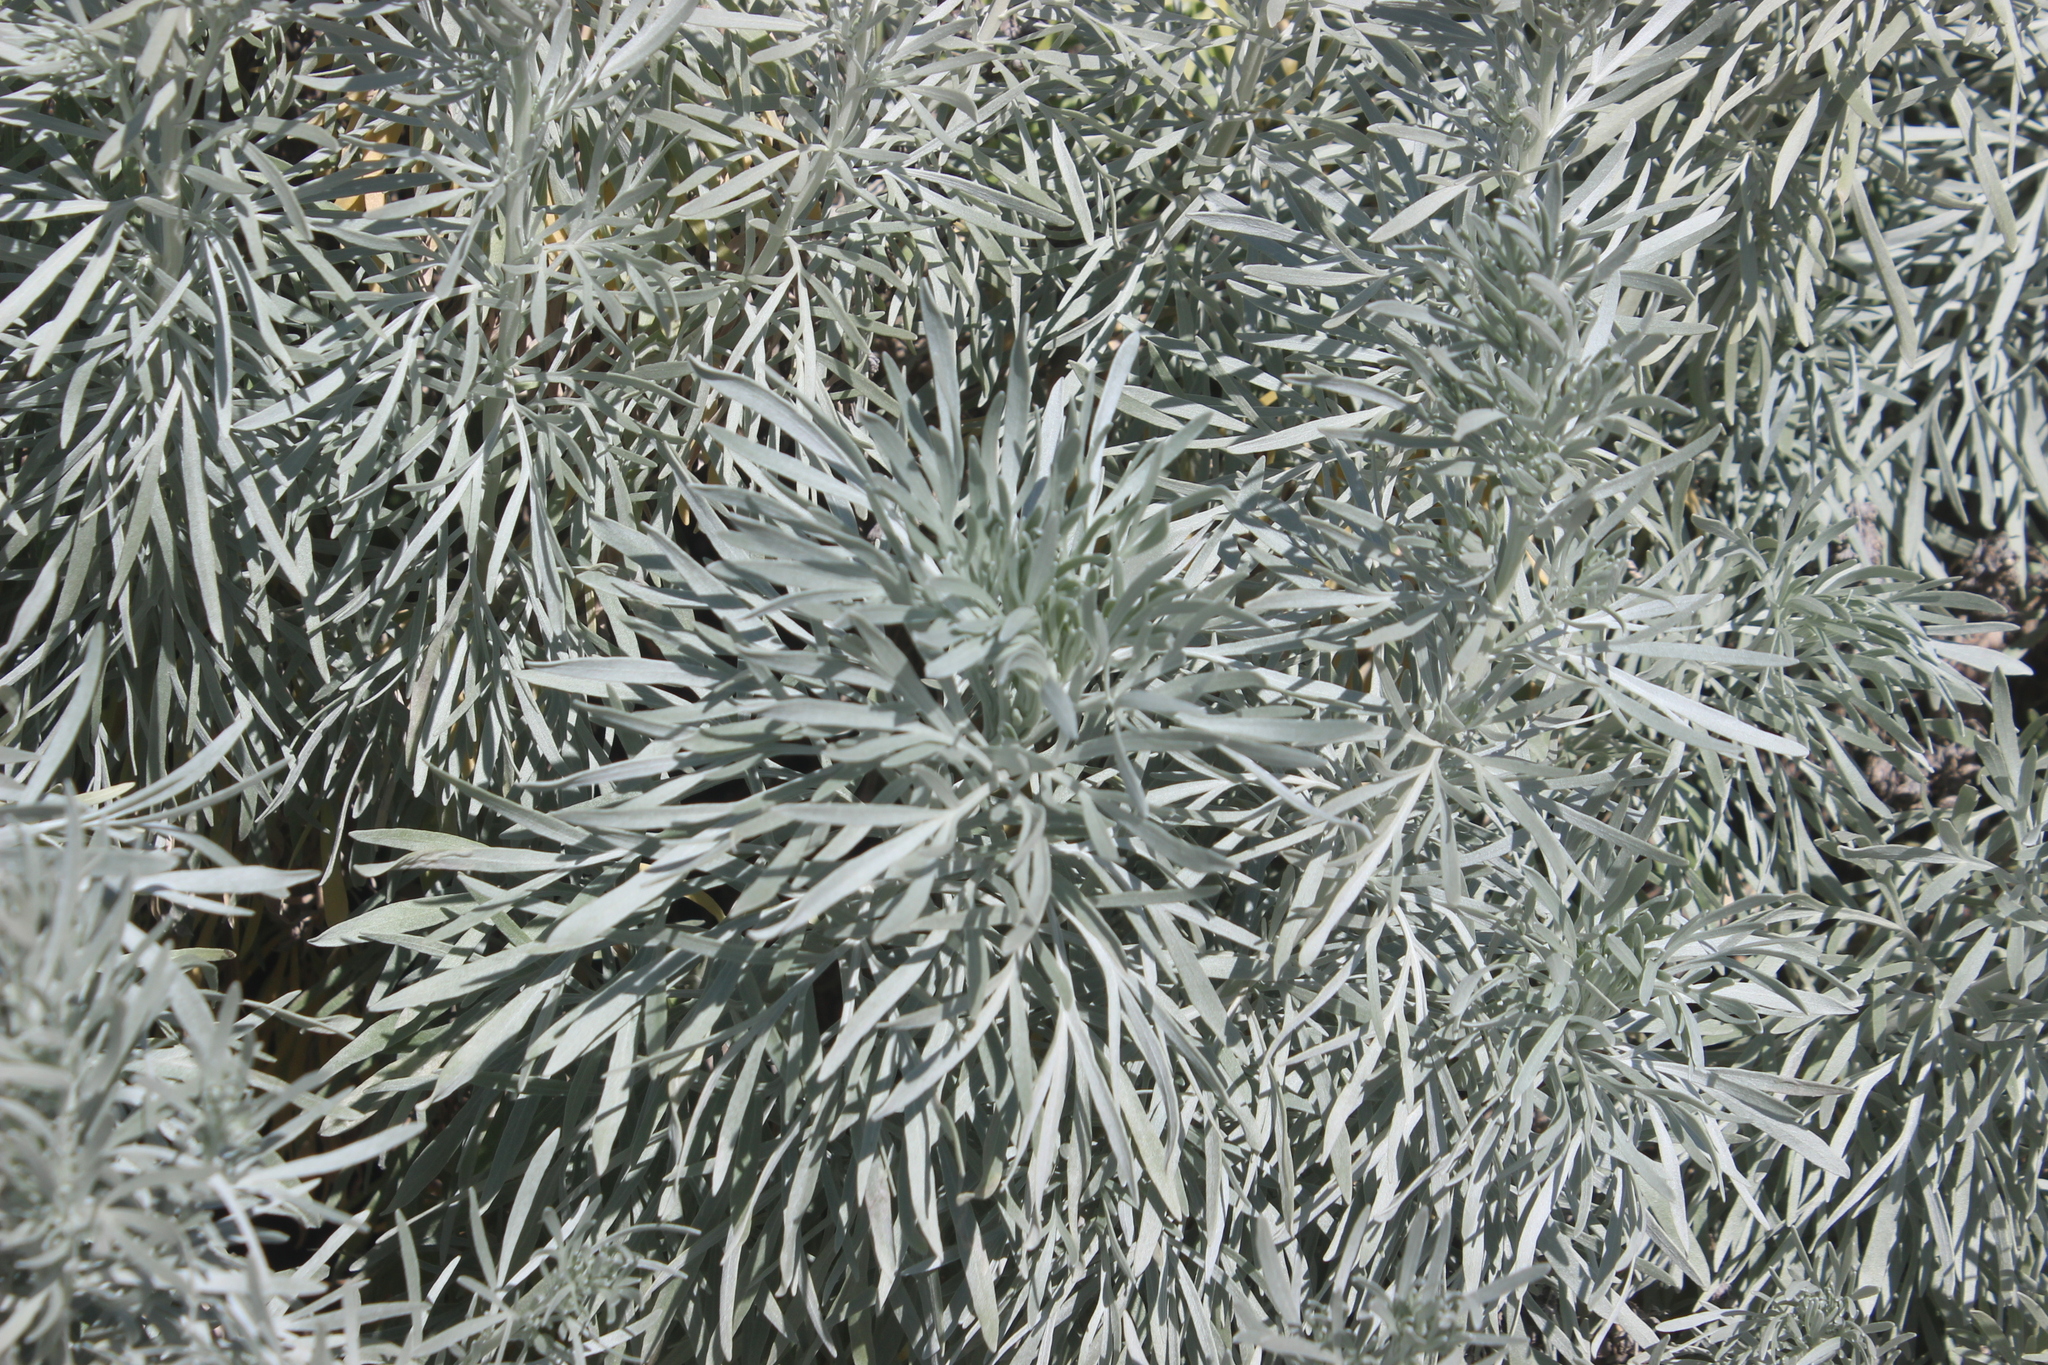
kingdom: Plantae
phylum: Tracheophyta
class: Magnoliopsida
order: Asterales
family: Asteraceae
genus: Artemisia
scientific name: Artemisia arborescens
